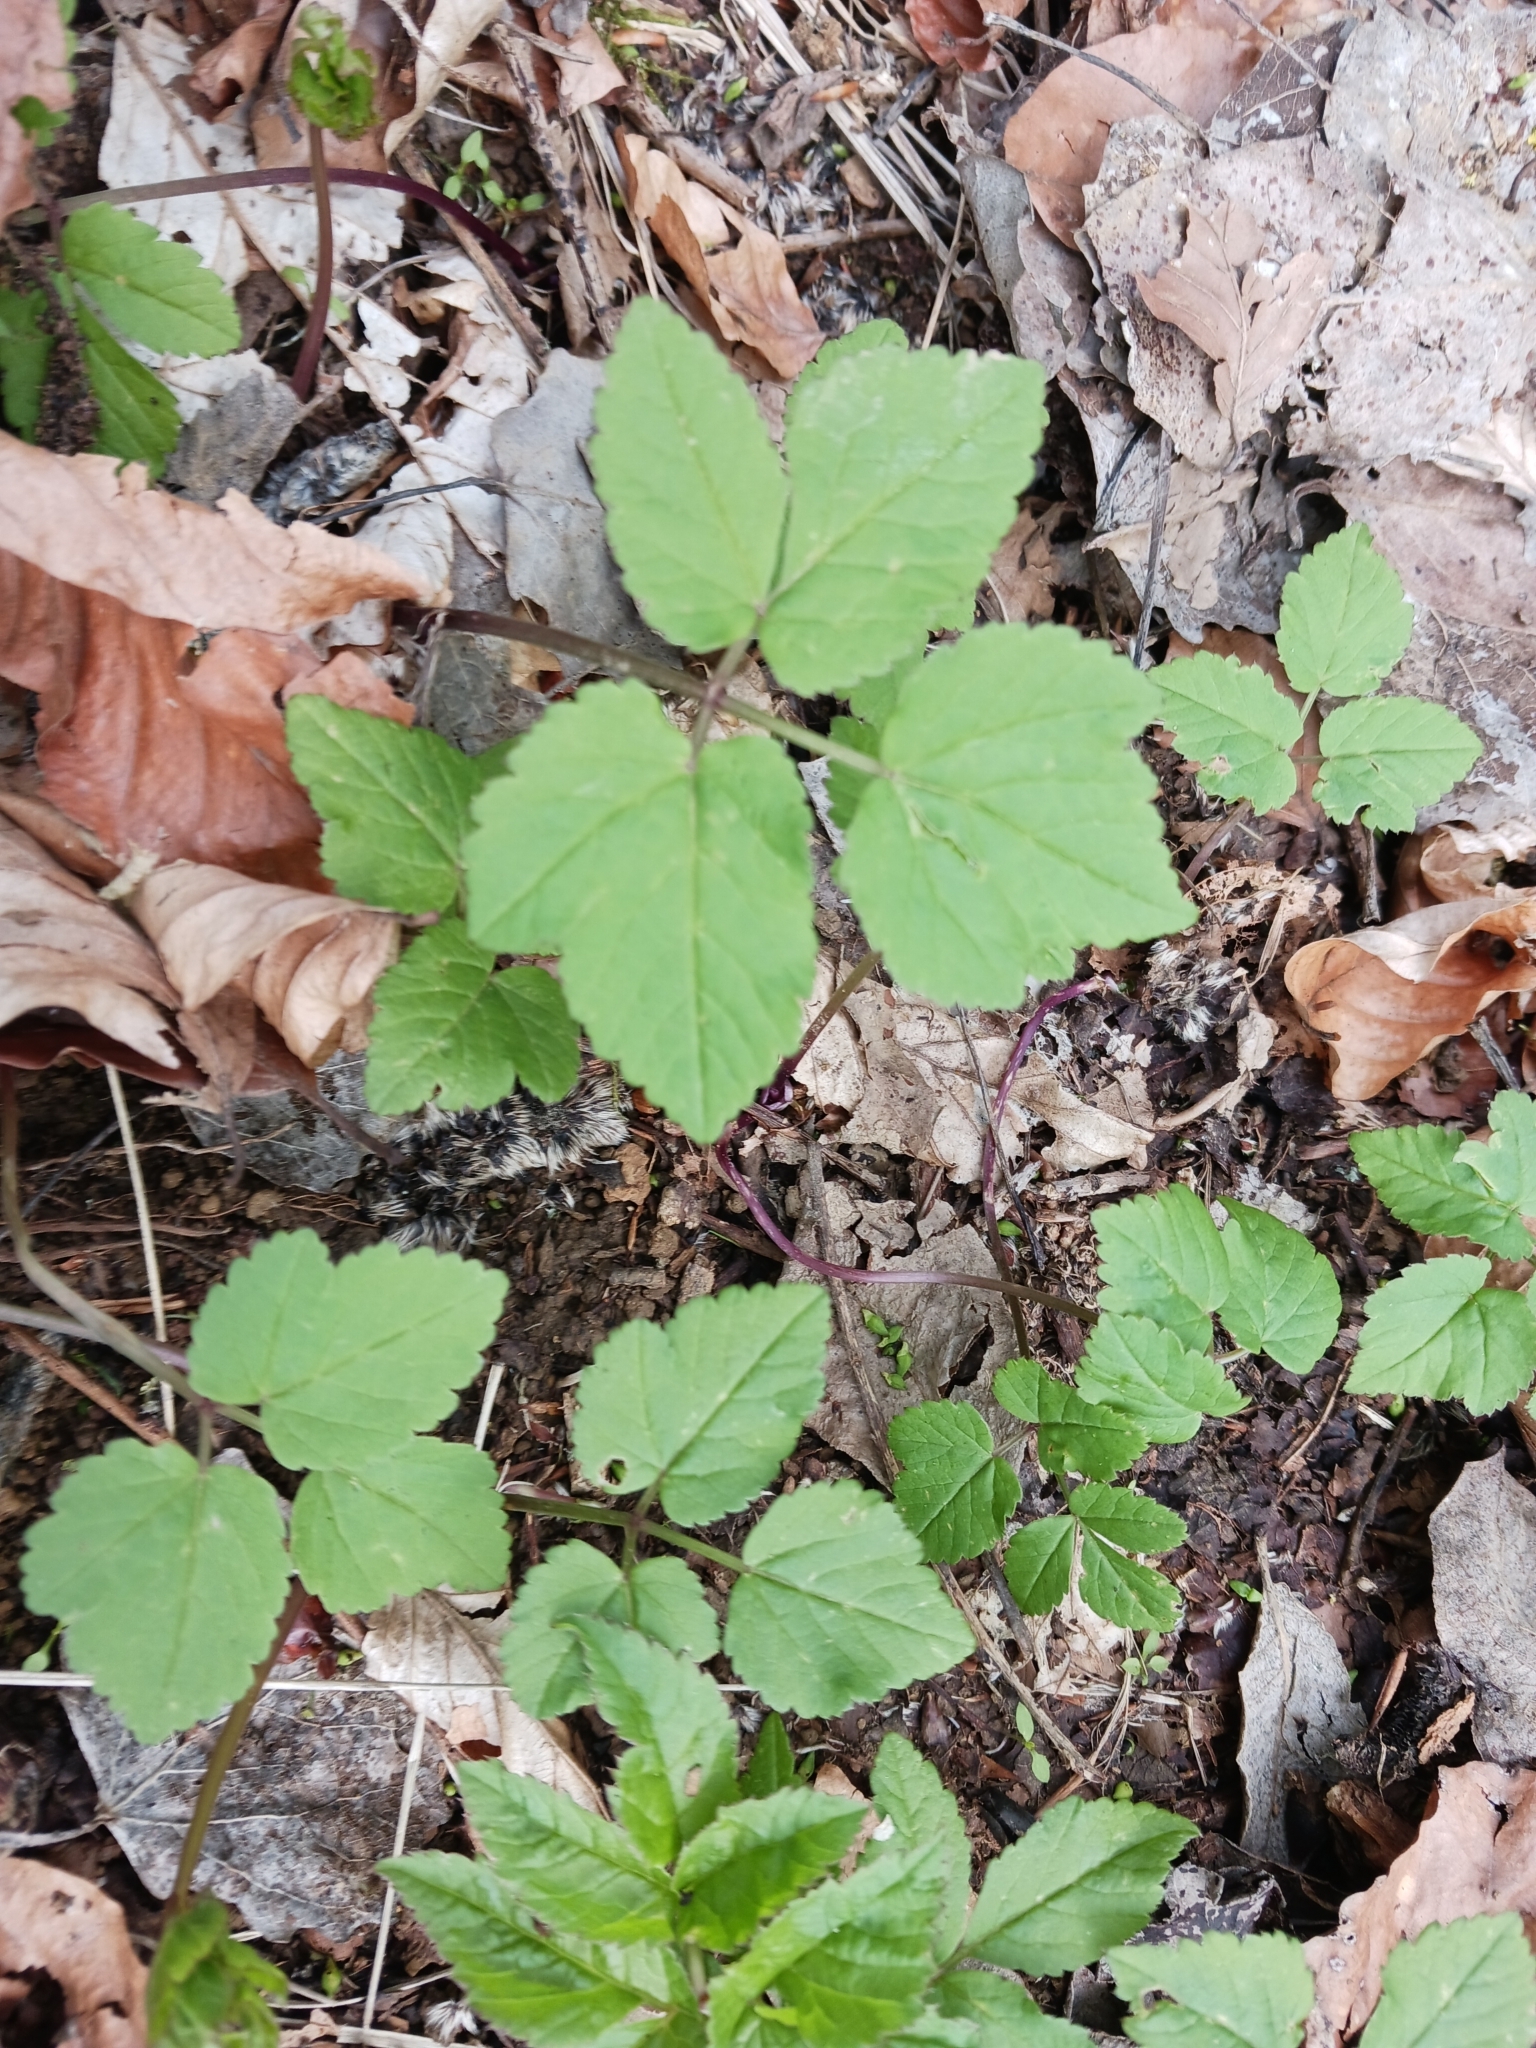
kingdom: Plantae
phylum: Tracheophyta
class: Magnoliopsida
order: Apiales
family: Apiaceae
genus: Aegopodium
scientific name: Aegopodium podagraria
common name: Ground-elder
